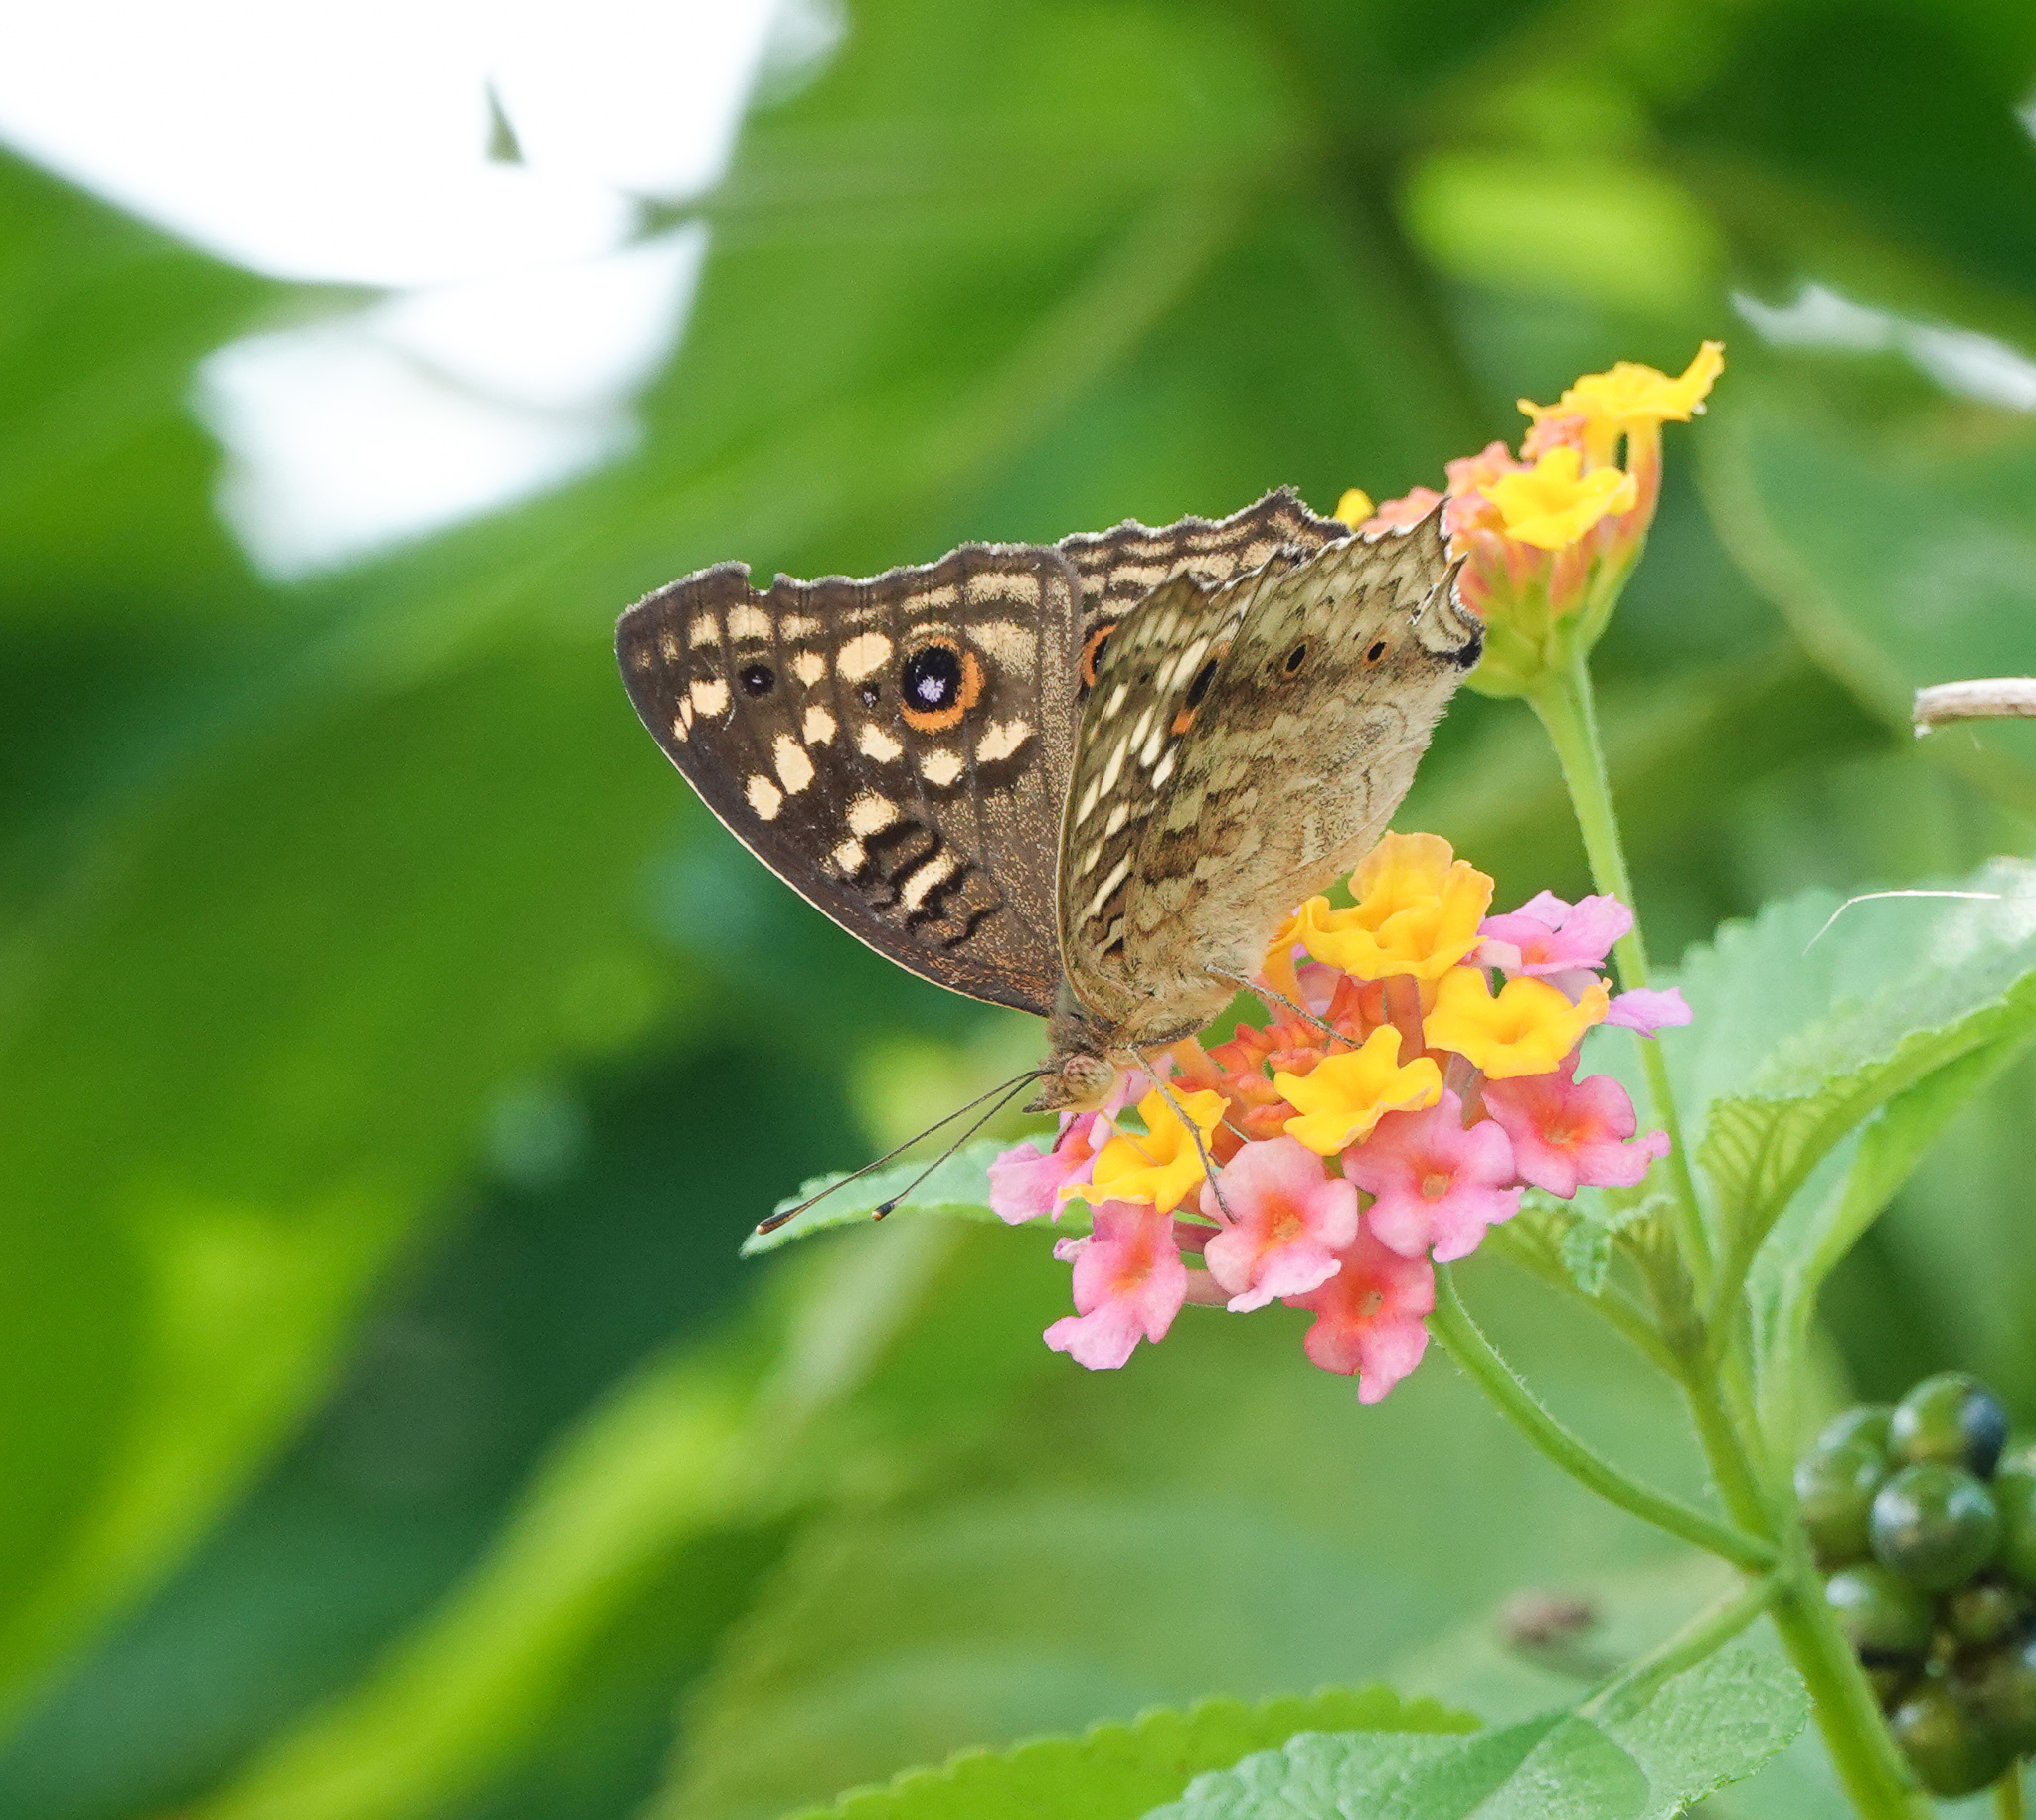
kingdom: Animalia
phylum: Arthropoda
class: Insecta
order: Lepidoptera
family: Nymphalidae
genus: Junonia
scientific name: Junonia lemonias
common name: Lemon pansy
